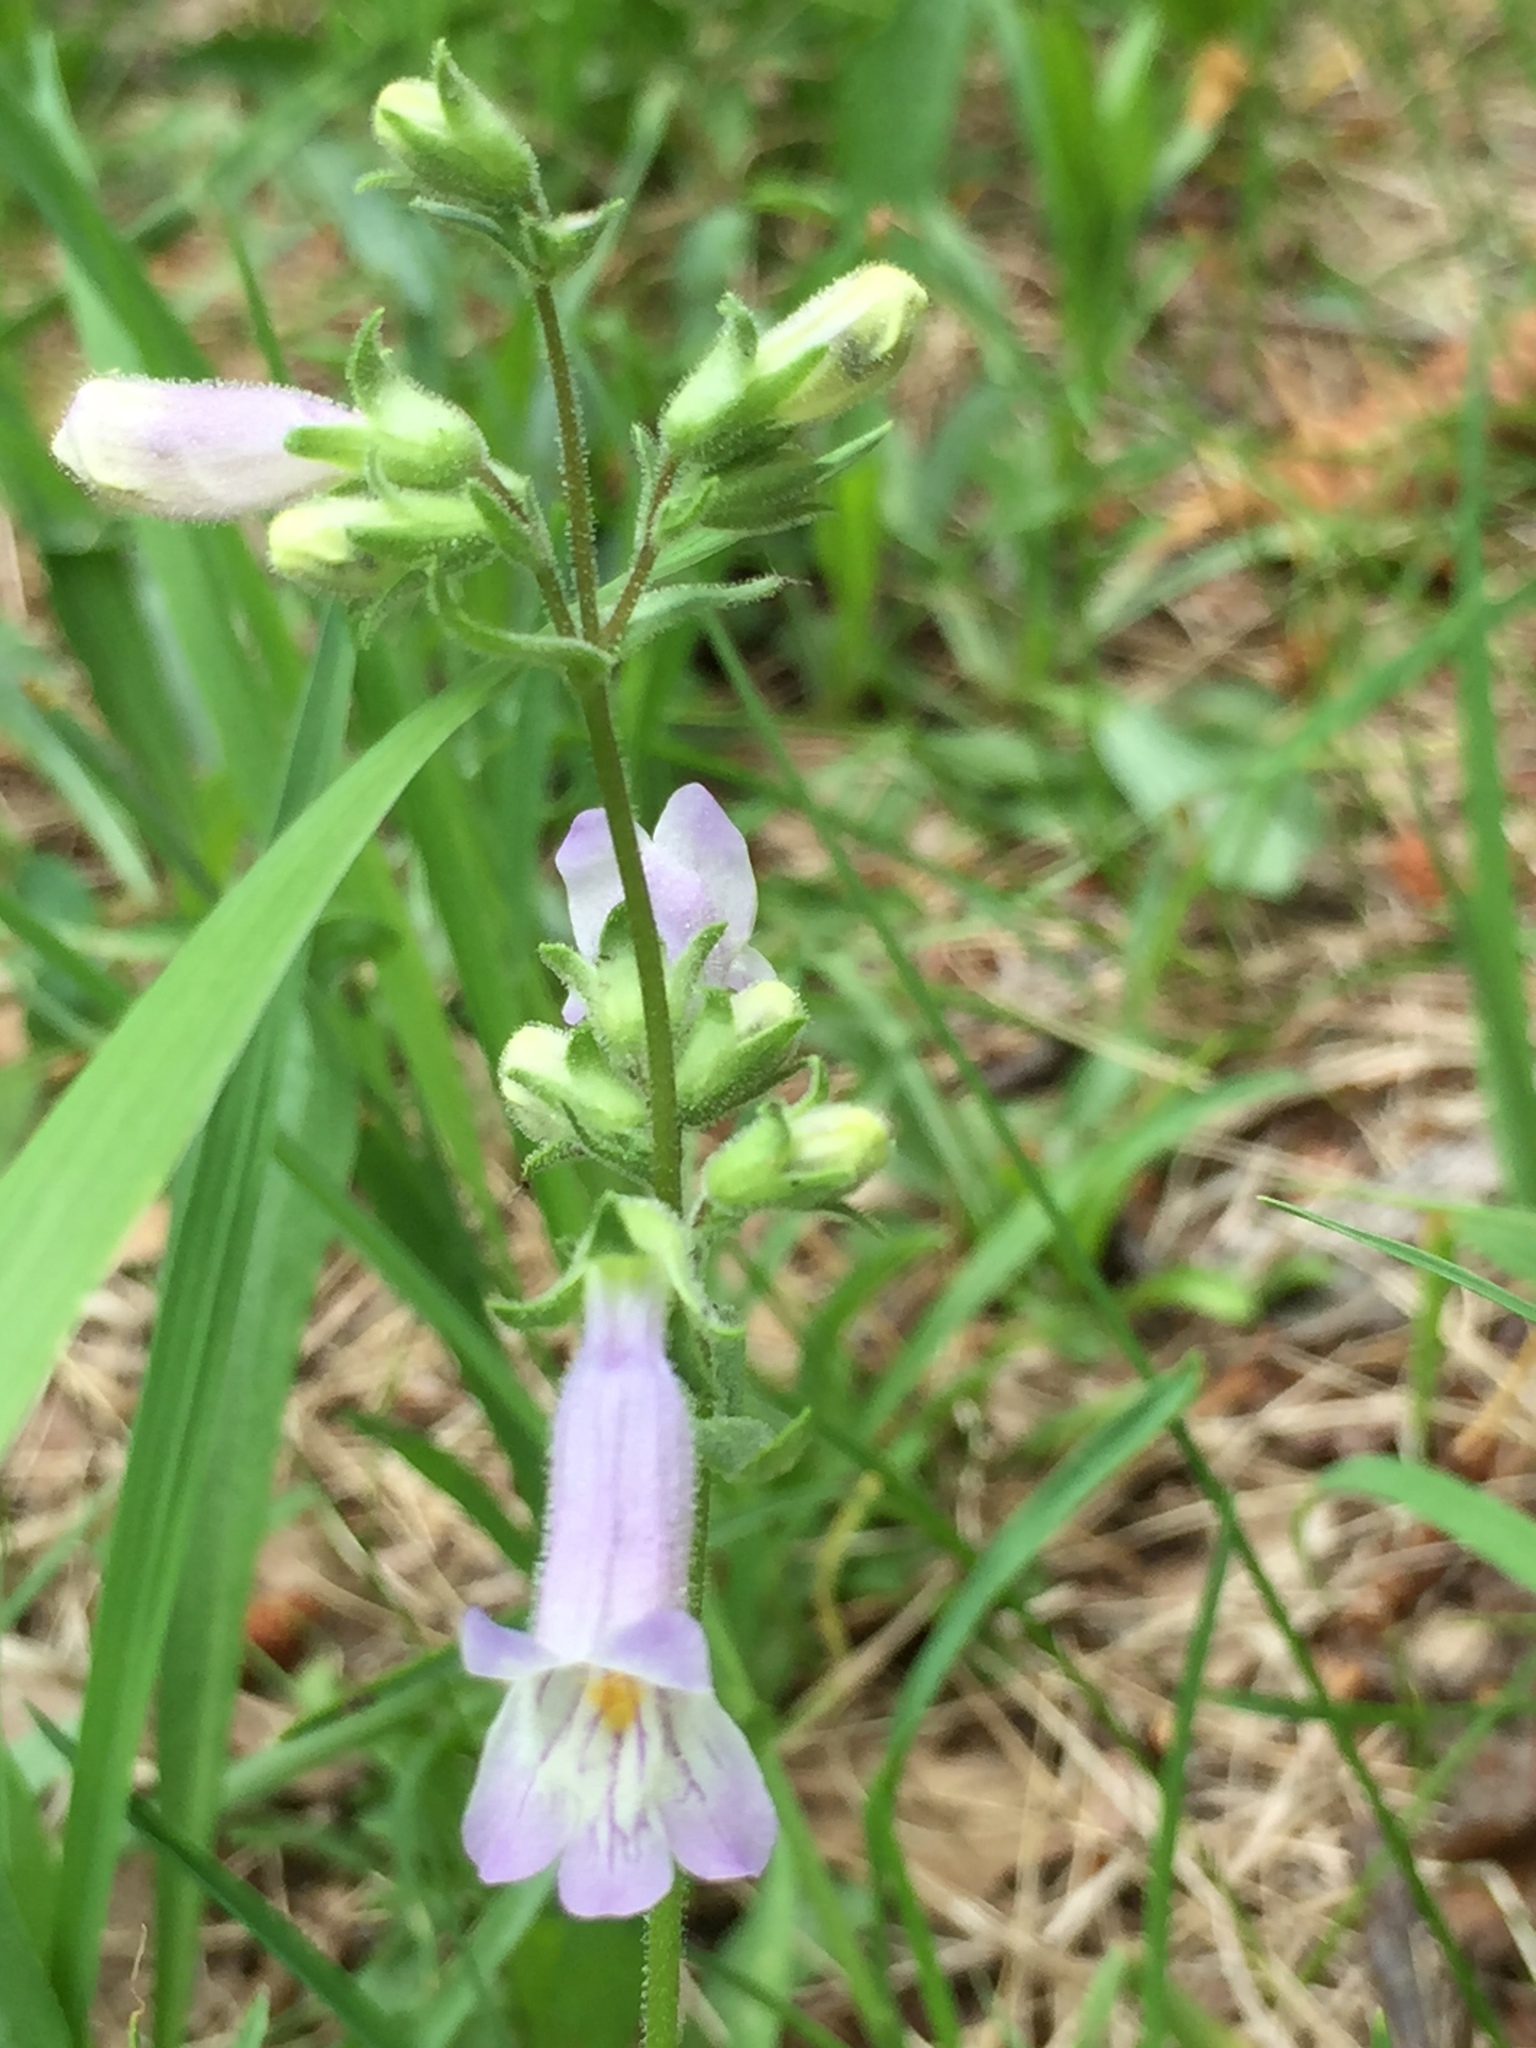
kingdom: Plantae
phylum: Tracheophyta
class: Magnoliopsida
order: Lamiales
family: Plantaginaceae
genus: Penstemon
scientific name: Penstemon gracilis
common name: Slender beardtongue
